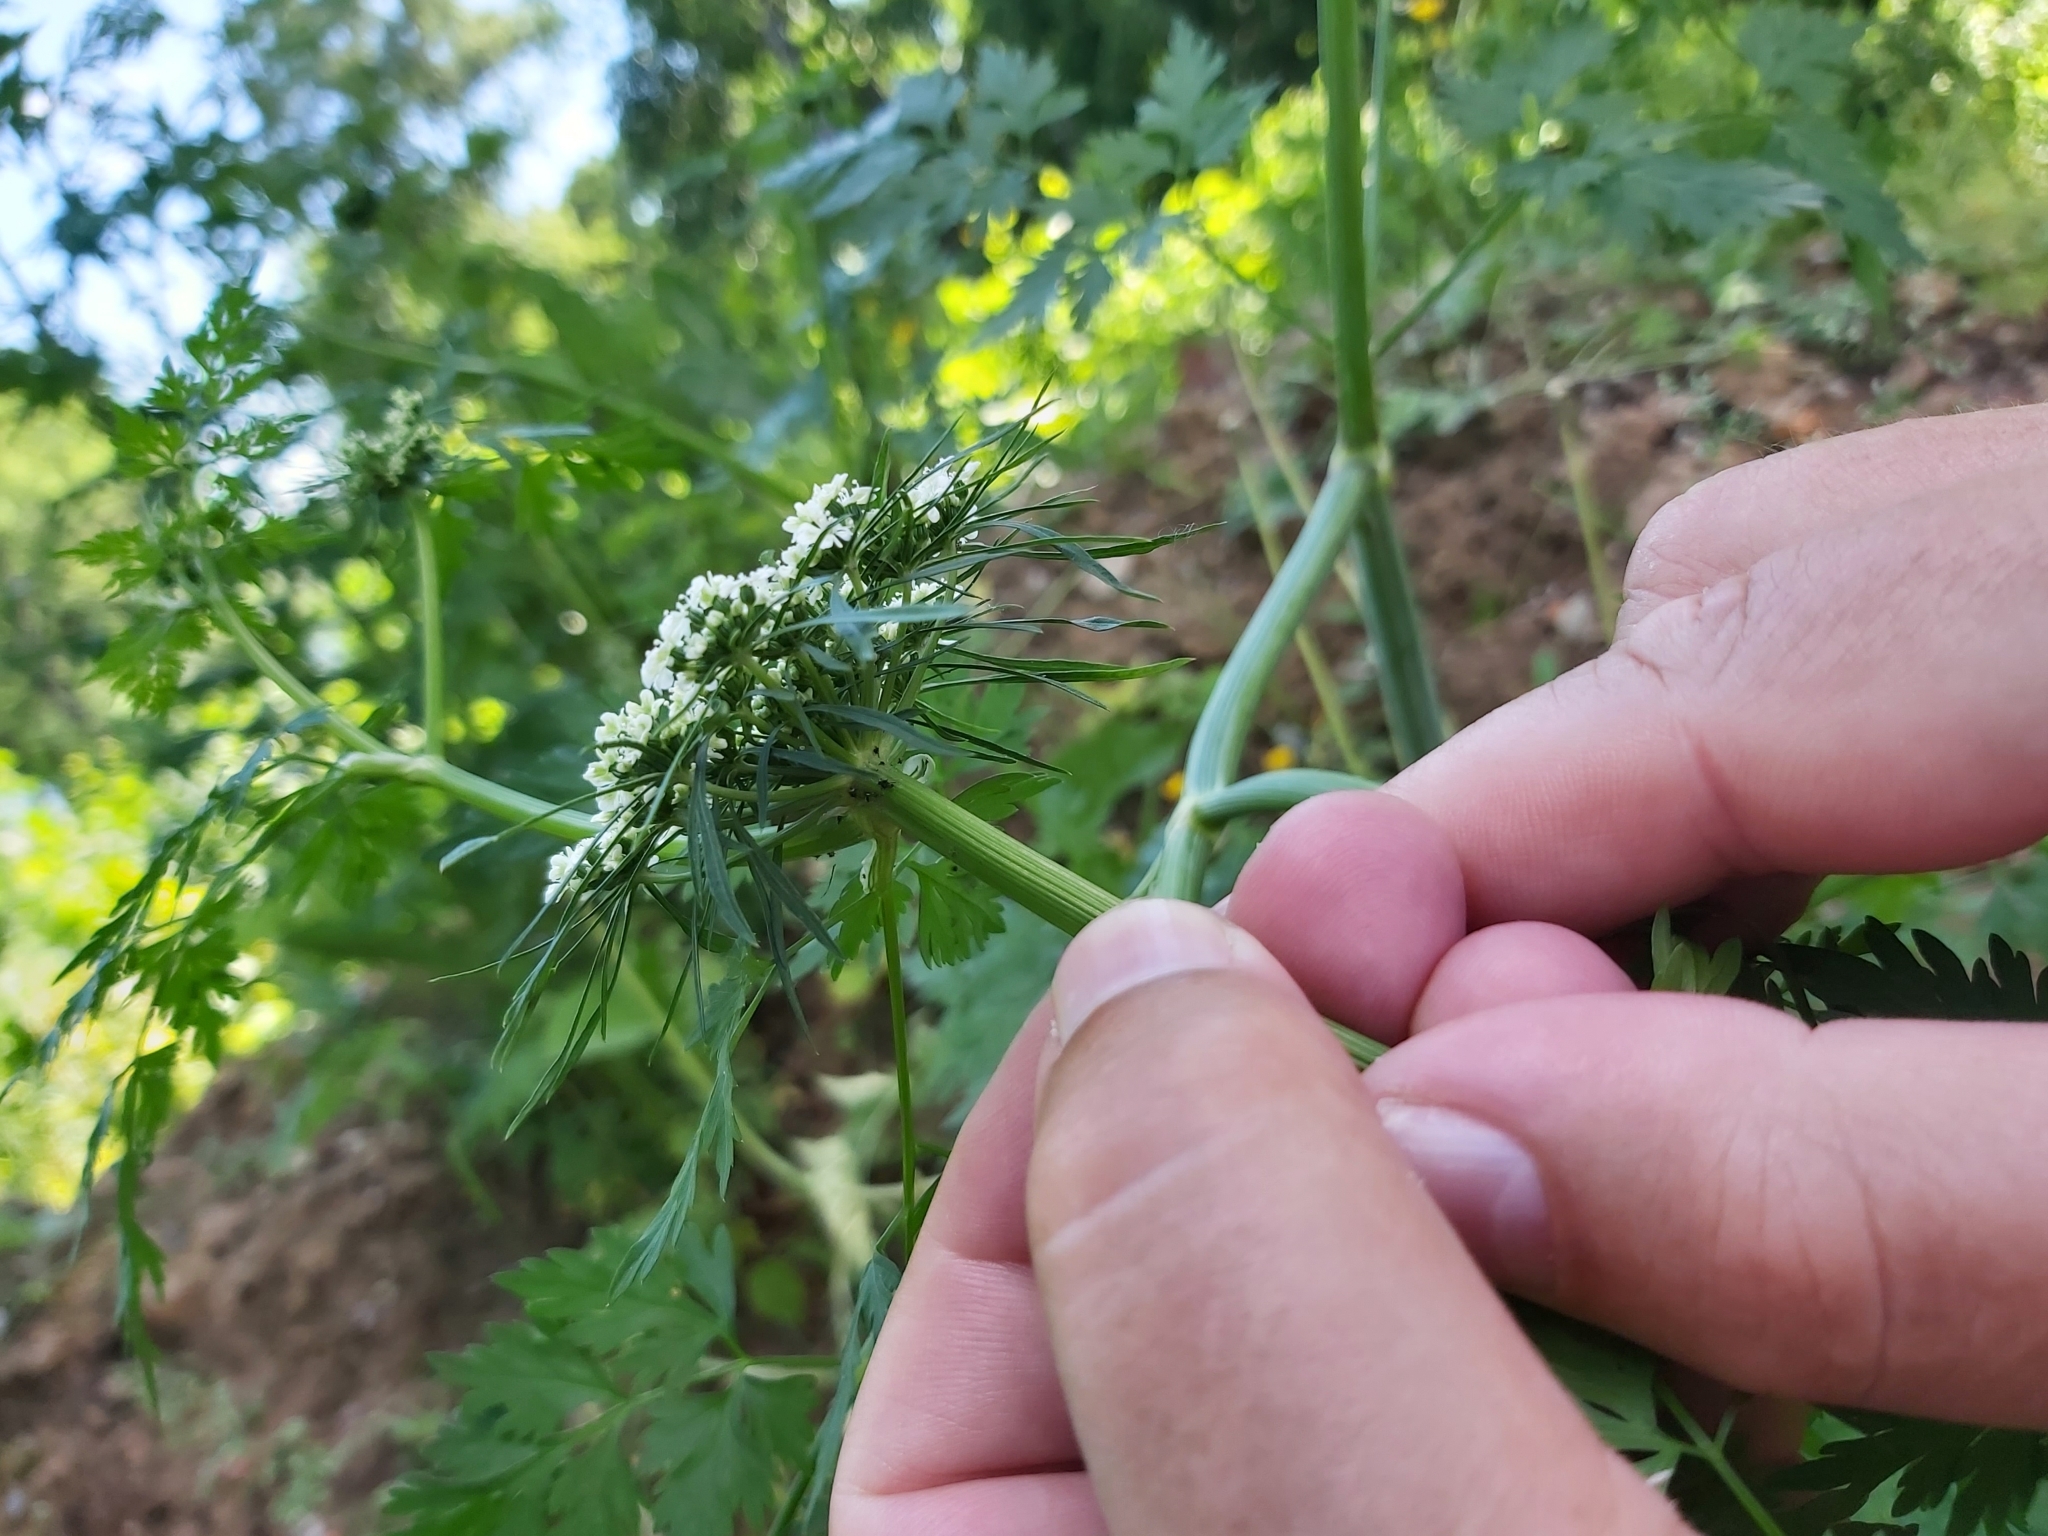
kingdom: Plantae
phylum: Tracheophyta
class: Magnoliopsida
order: Apiales
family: Apiaceae
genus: Aethusa
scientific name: Aethusa cynapium
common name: Fool's parsley
